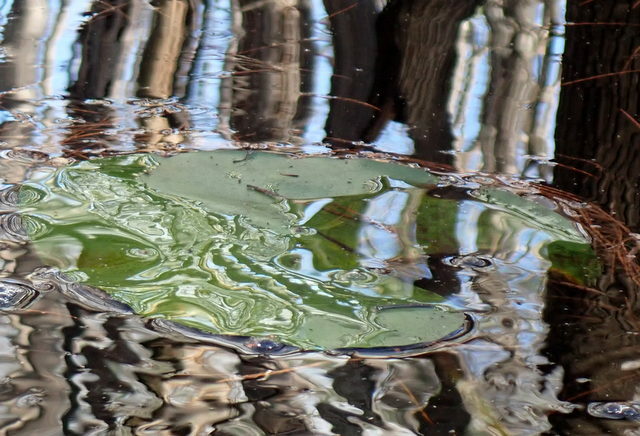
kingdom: Plantae
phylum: Tracheophyta
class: Magnoliopsida
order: Nymphaeales
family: Nymphaeaceae
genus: Nuphar
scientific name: Nuphar advena
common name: Spatter-dock
